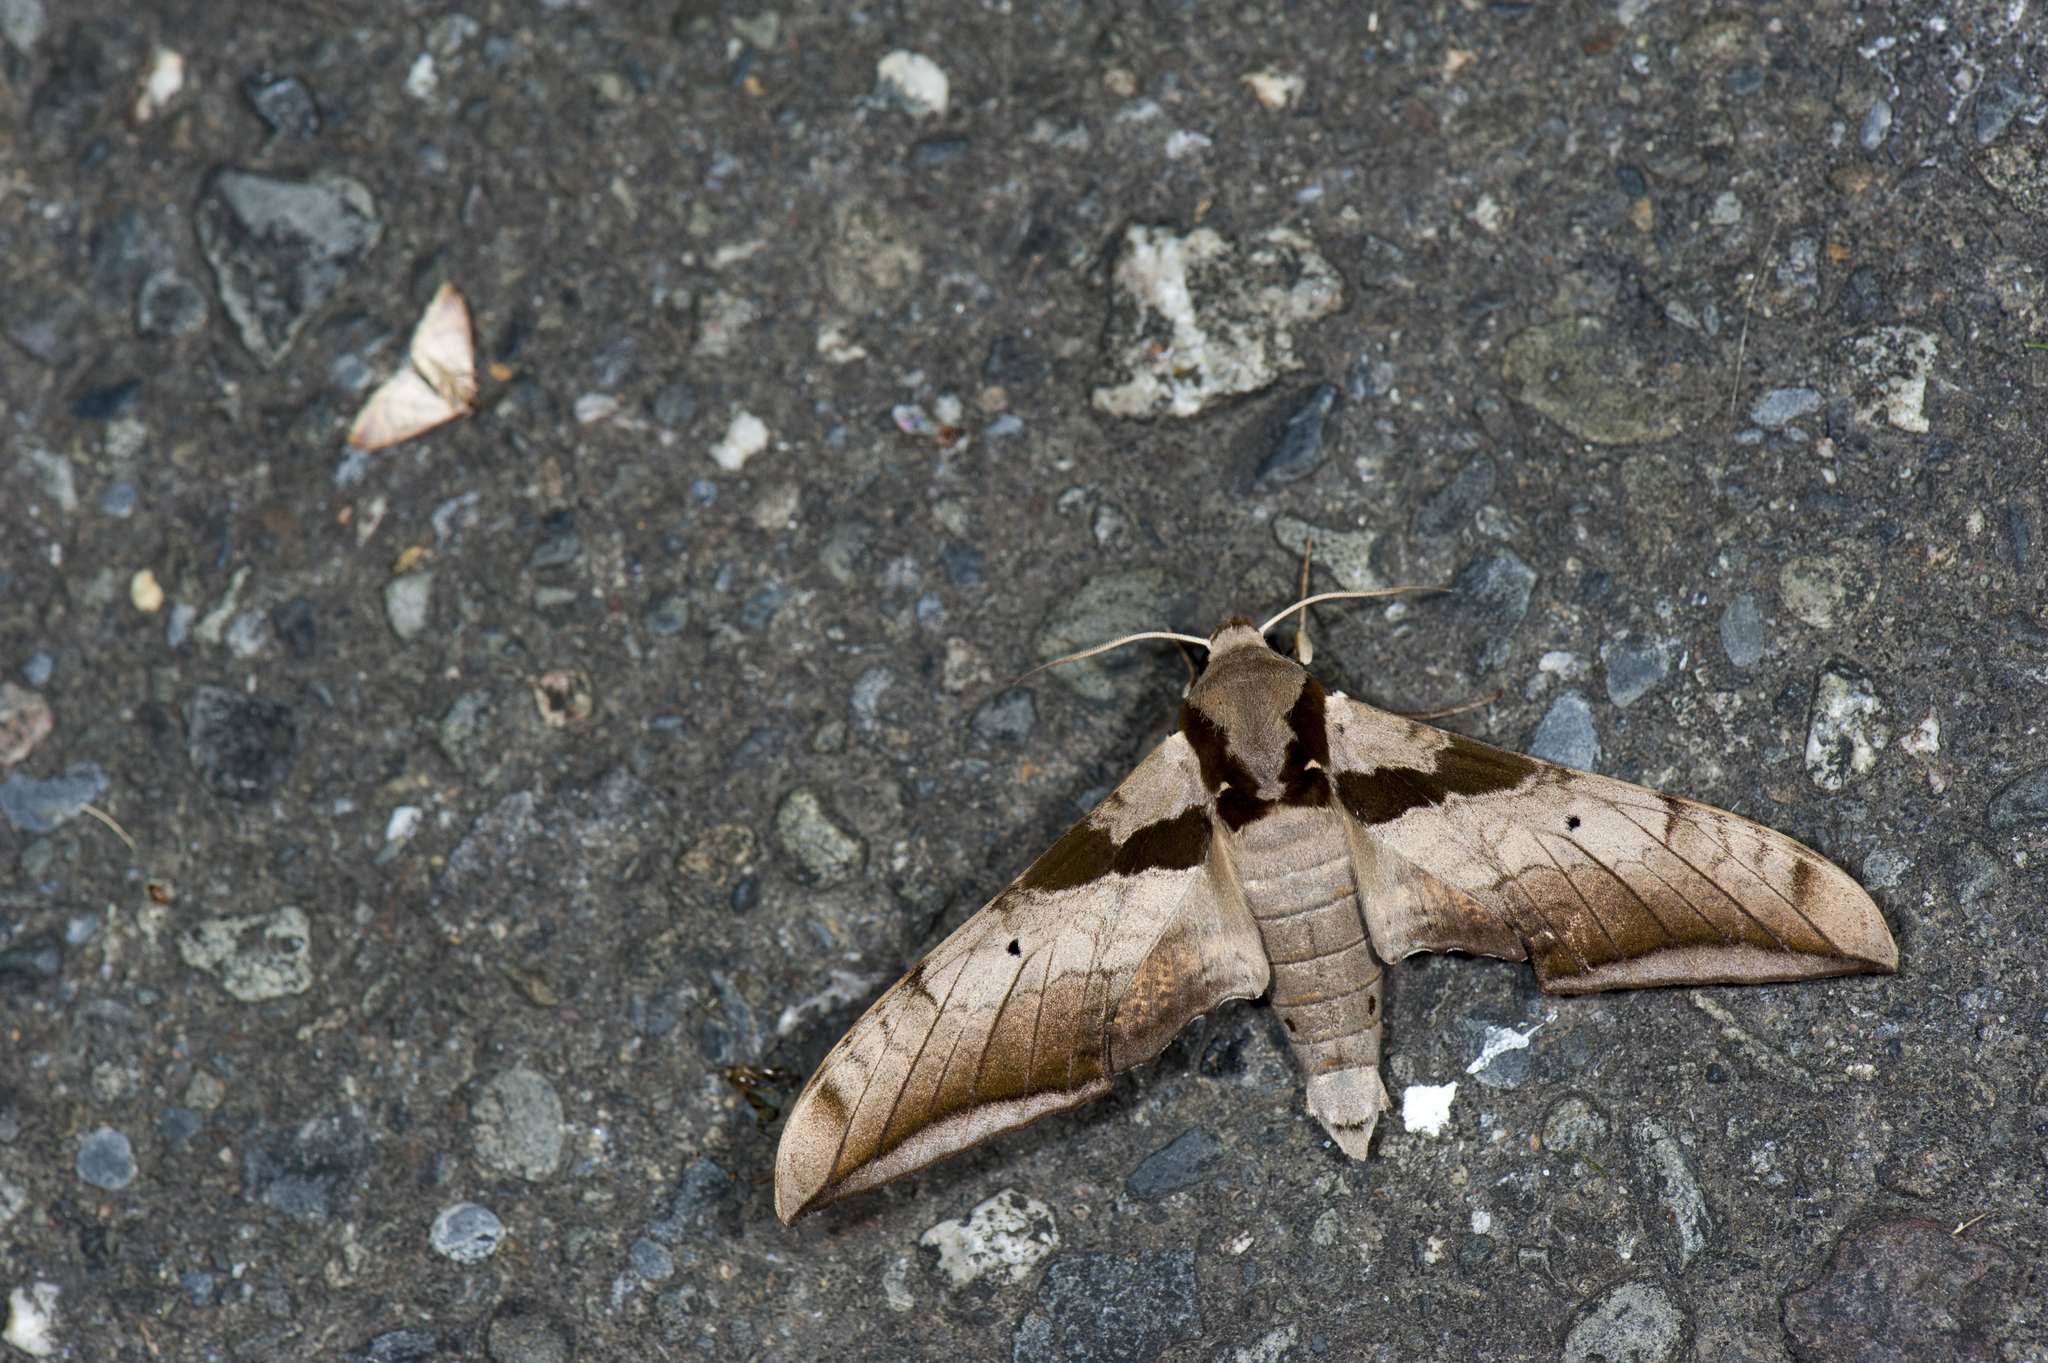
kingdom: Animalia
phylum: Arthropoda
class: Insecta
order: Lepidoptera
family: Sphingidae
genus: Ambulyx
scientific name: Ambulyx japonica
